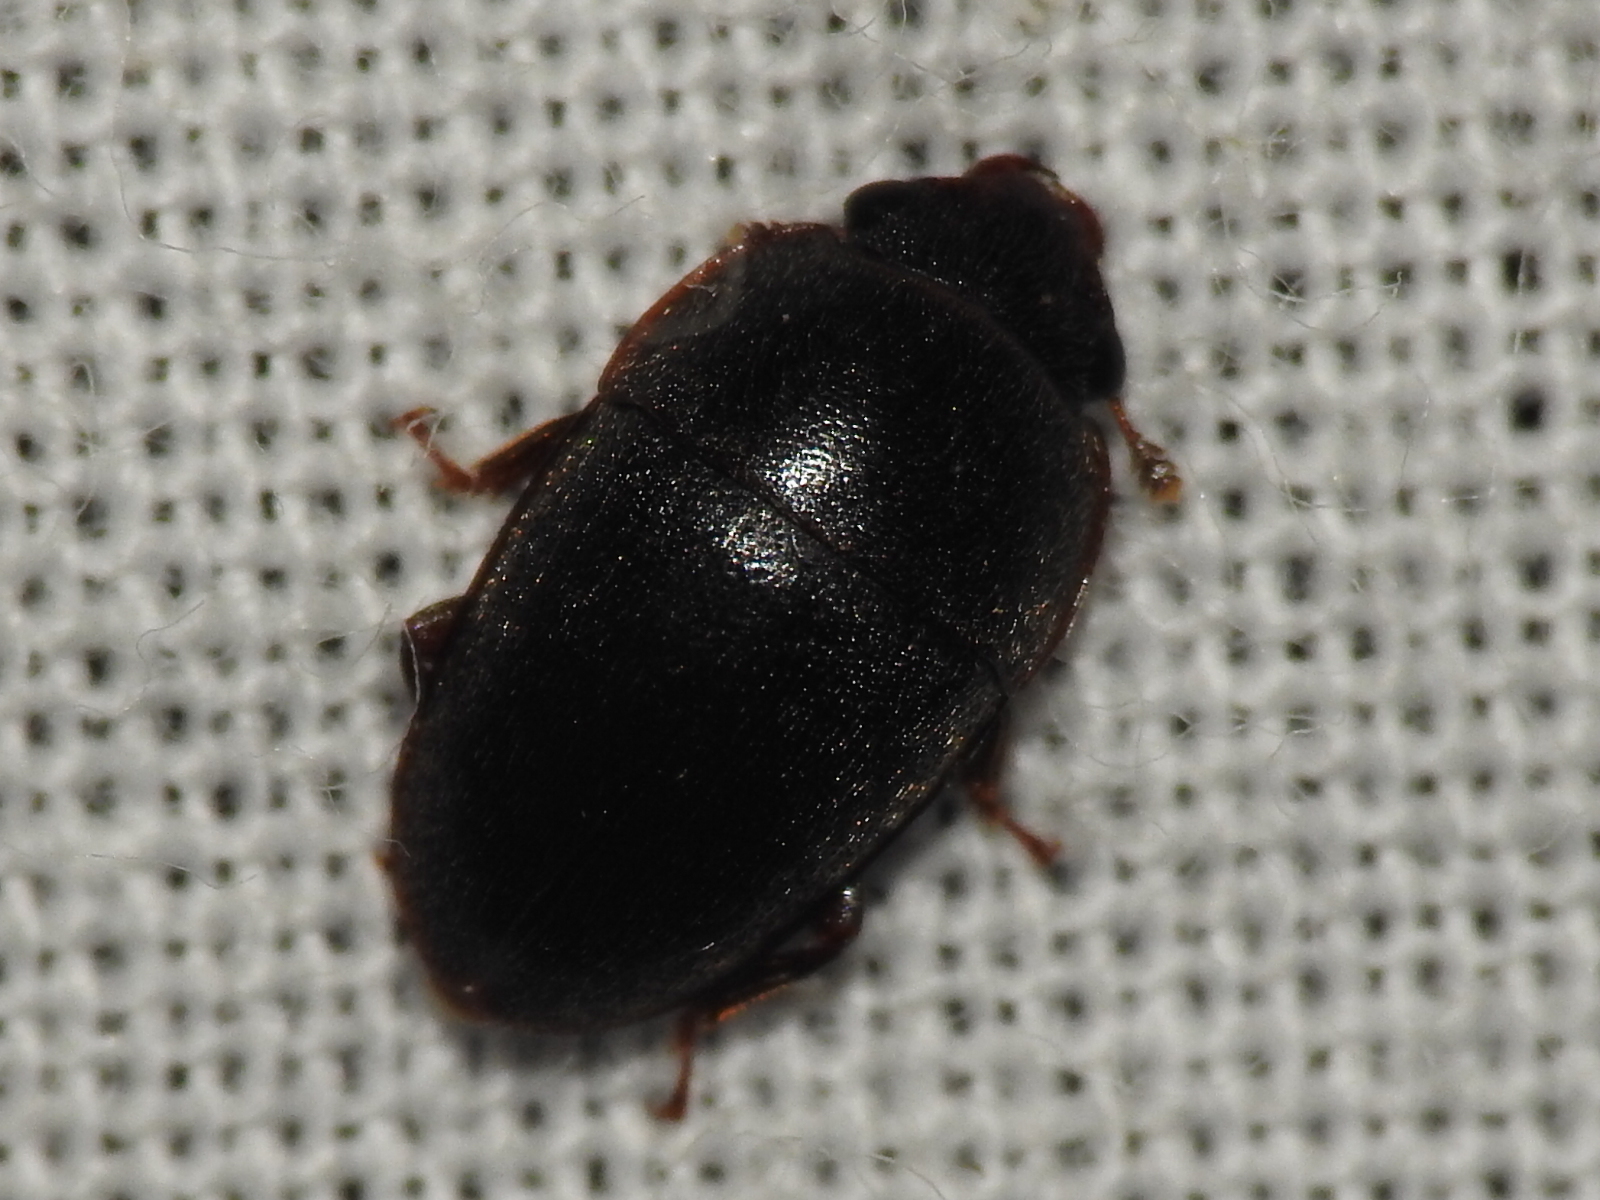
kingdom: Animalia
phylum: Arthropoda
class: Insecta
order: Coleoptera
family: Nitidulidae
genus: Cryptarcha
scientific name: Cryptarcha ampla
